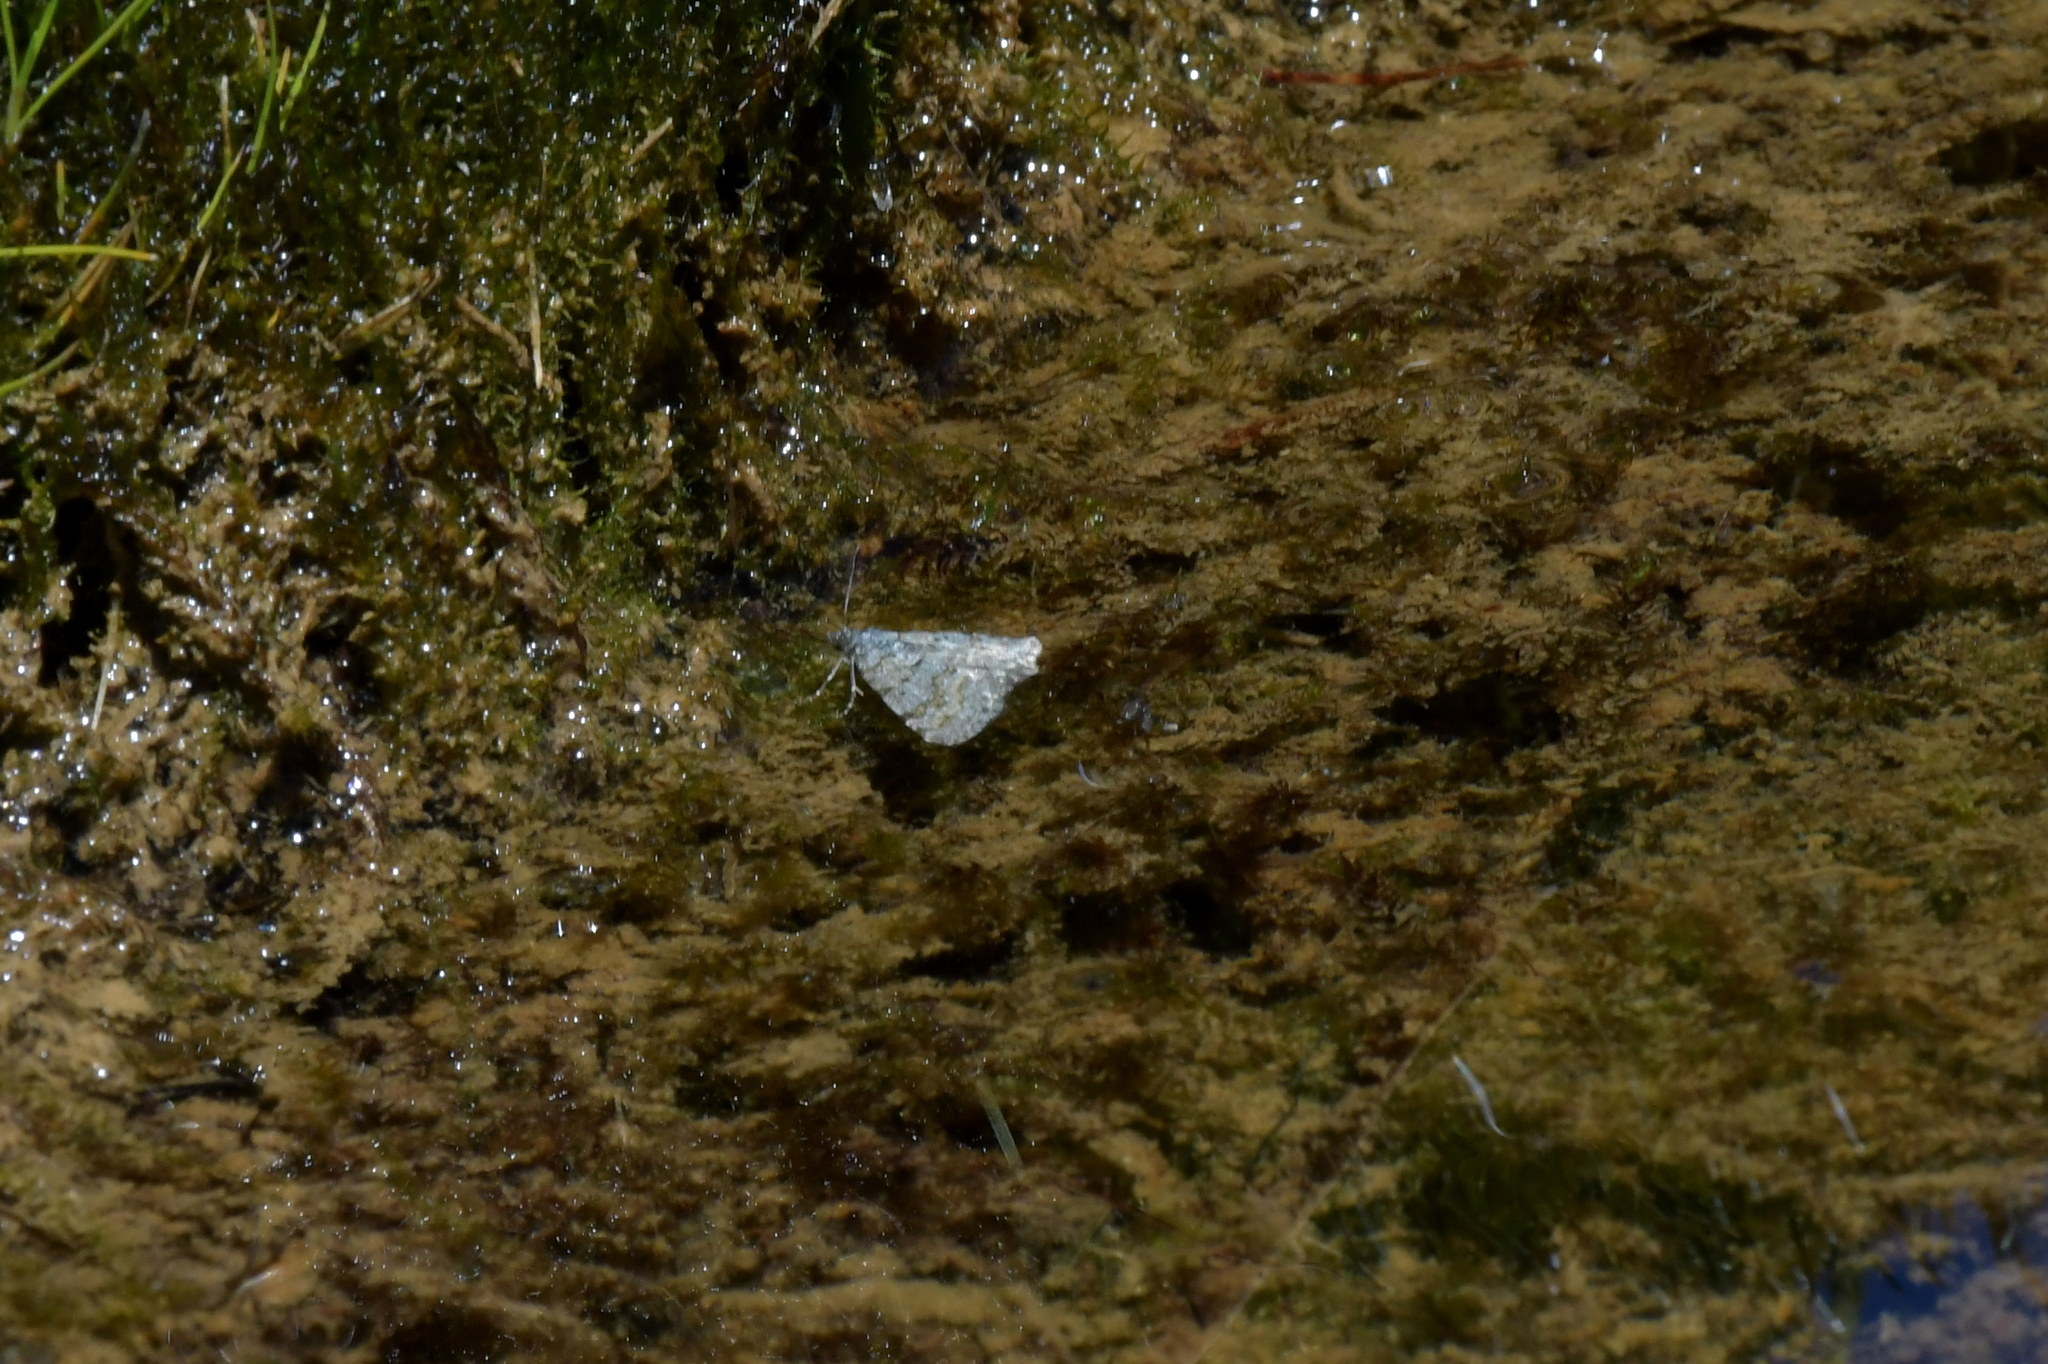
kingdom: Animalia
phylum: Arthropoda
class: Insecta
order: Lepidoptera
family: Geometridae
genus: Asaphodes
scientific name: Asaphodes omichlias
